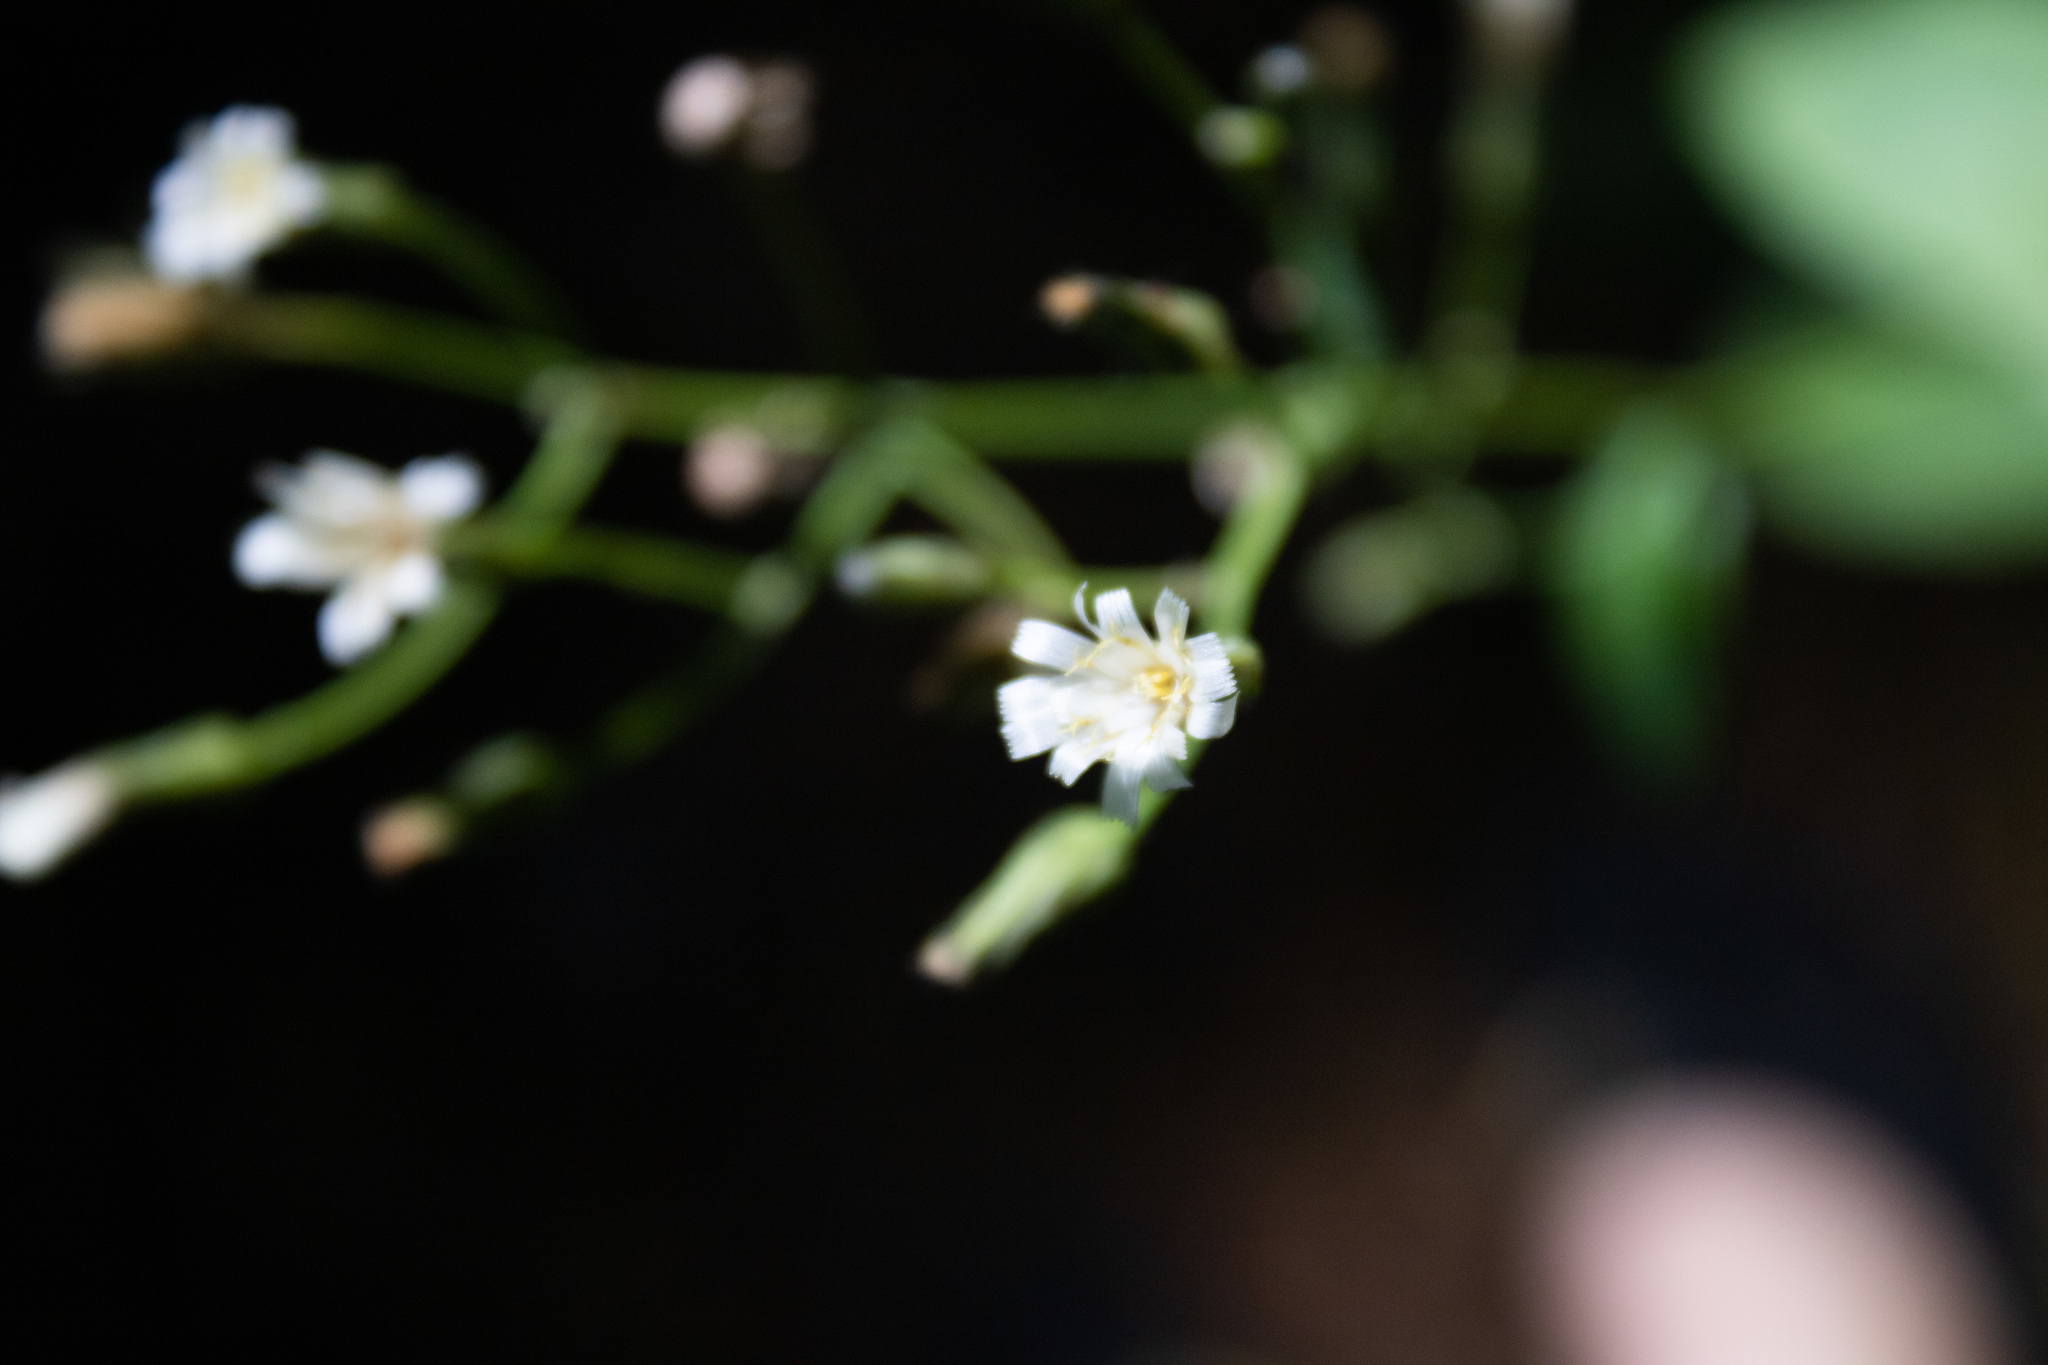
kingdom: Plantae
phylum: Tracheophyta
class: Magnoliopsida
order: Asterales
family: Asteraceae
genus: Hieracium
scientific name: Hieracium albiflorum
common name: White hawkweed
